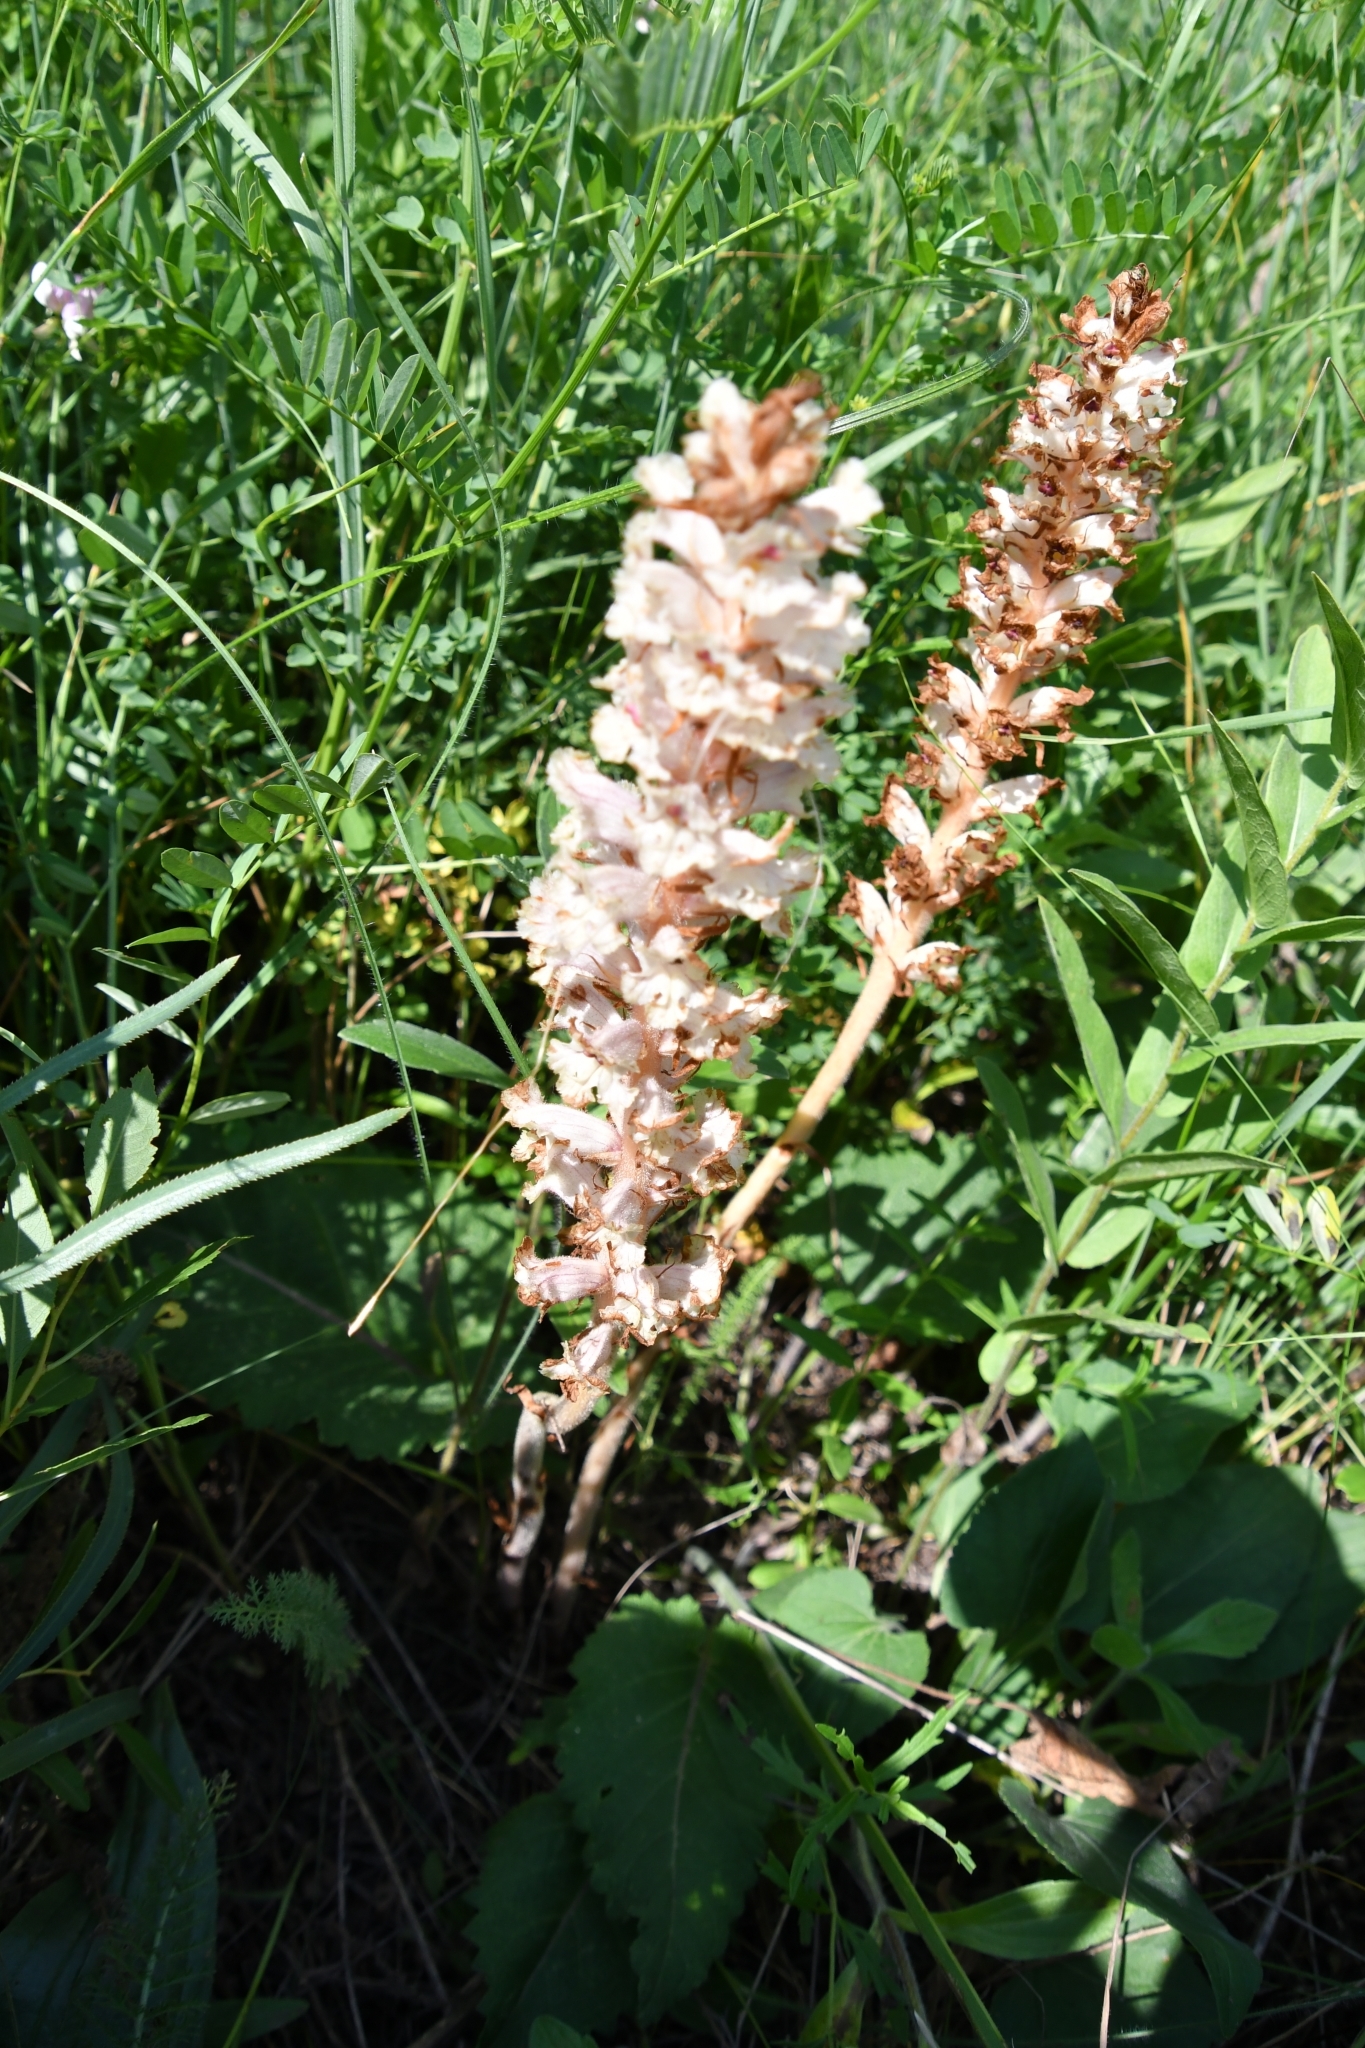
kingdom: Plantae
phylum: Tracheophyta
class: Magnoliopsida
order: Lamiales
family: Orobanchaceae
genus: Orobanche
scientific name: Orobanche alba
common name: Thyme broomrape
